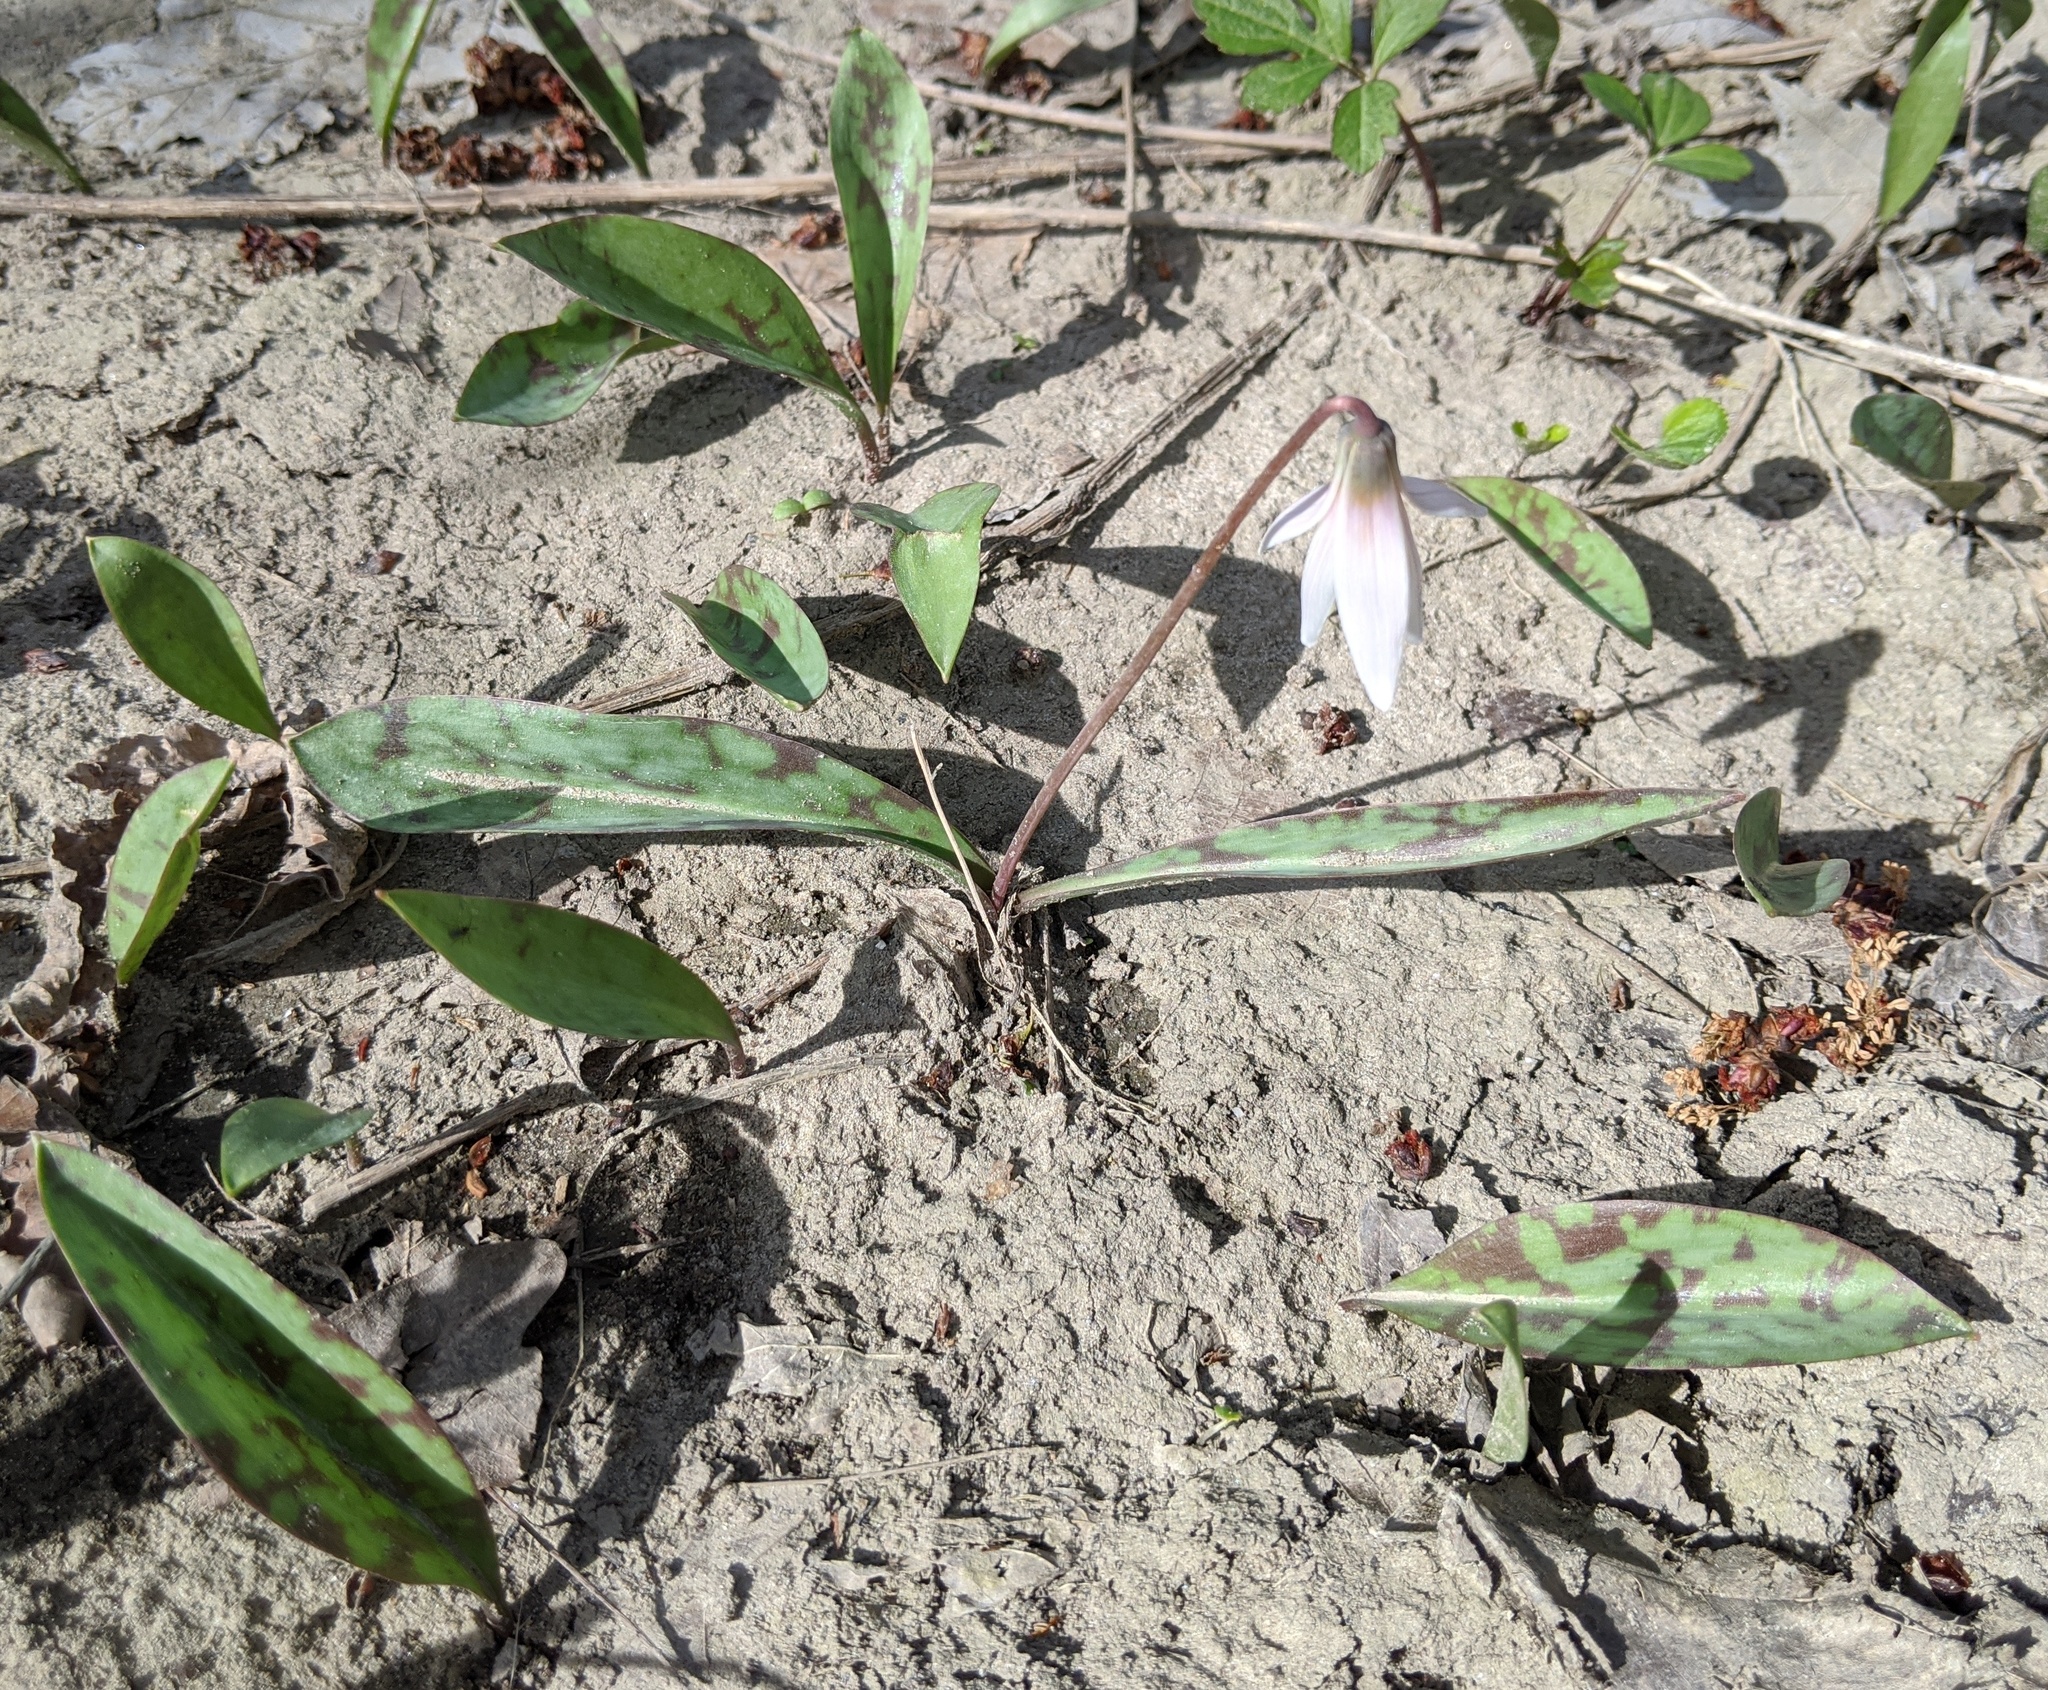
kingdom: Plantae
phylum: Tracheophyta
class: Liliopsida
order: Liliales
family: Liliaceae
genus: Erythronium
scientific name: Erythronium albidum
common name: White trout-lily
